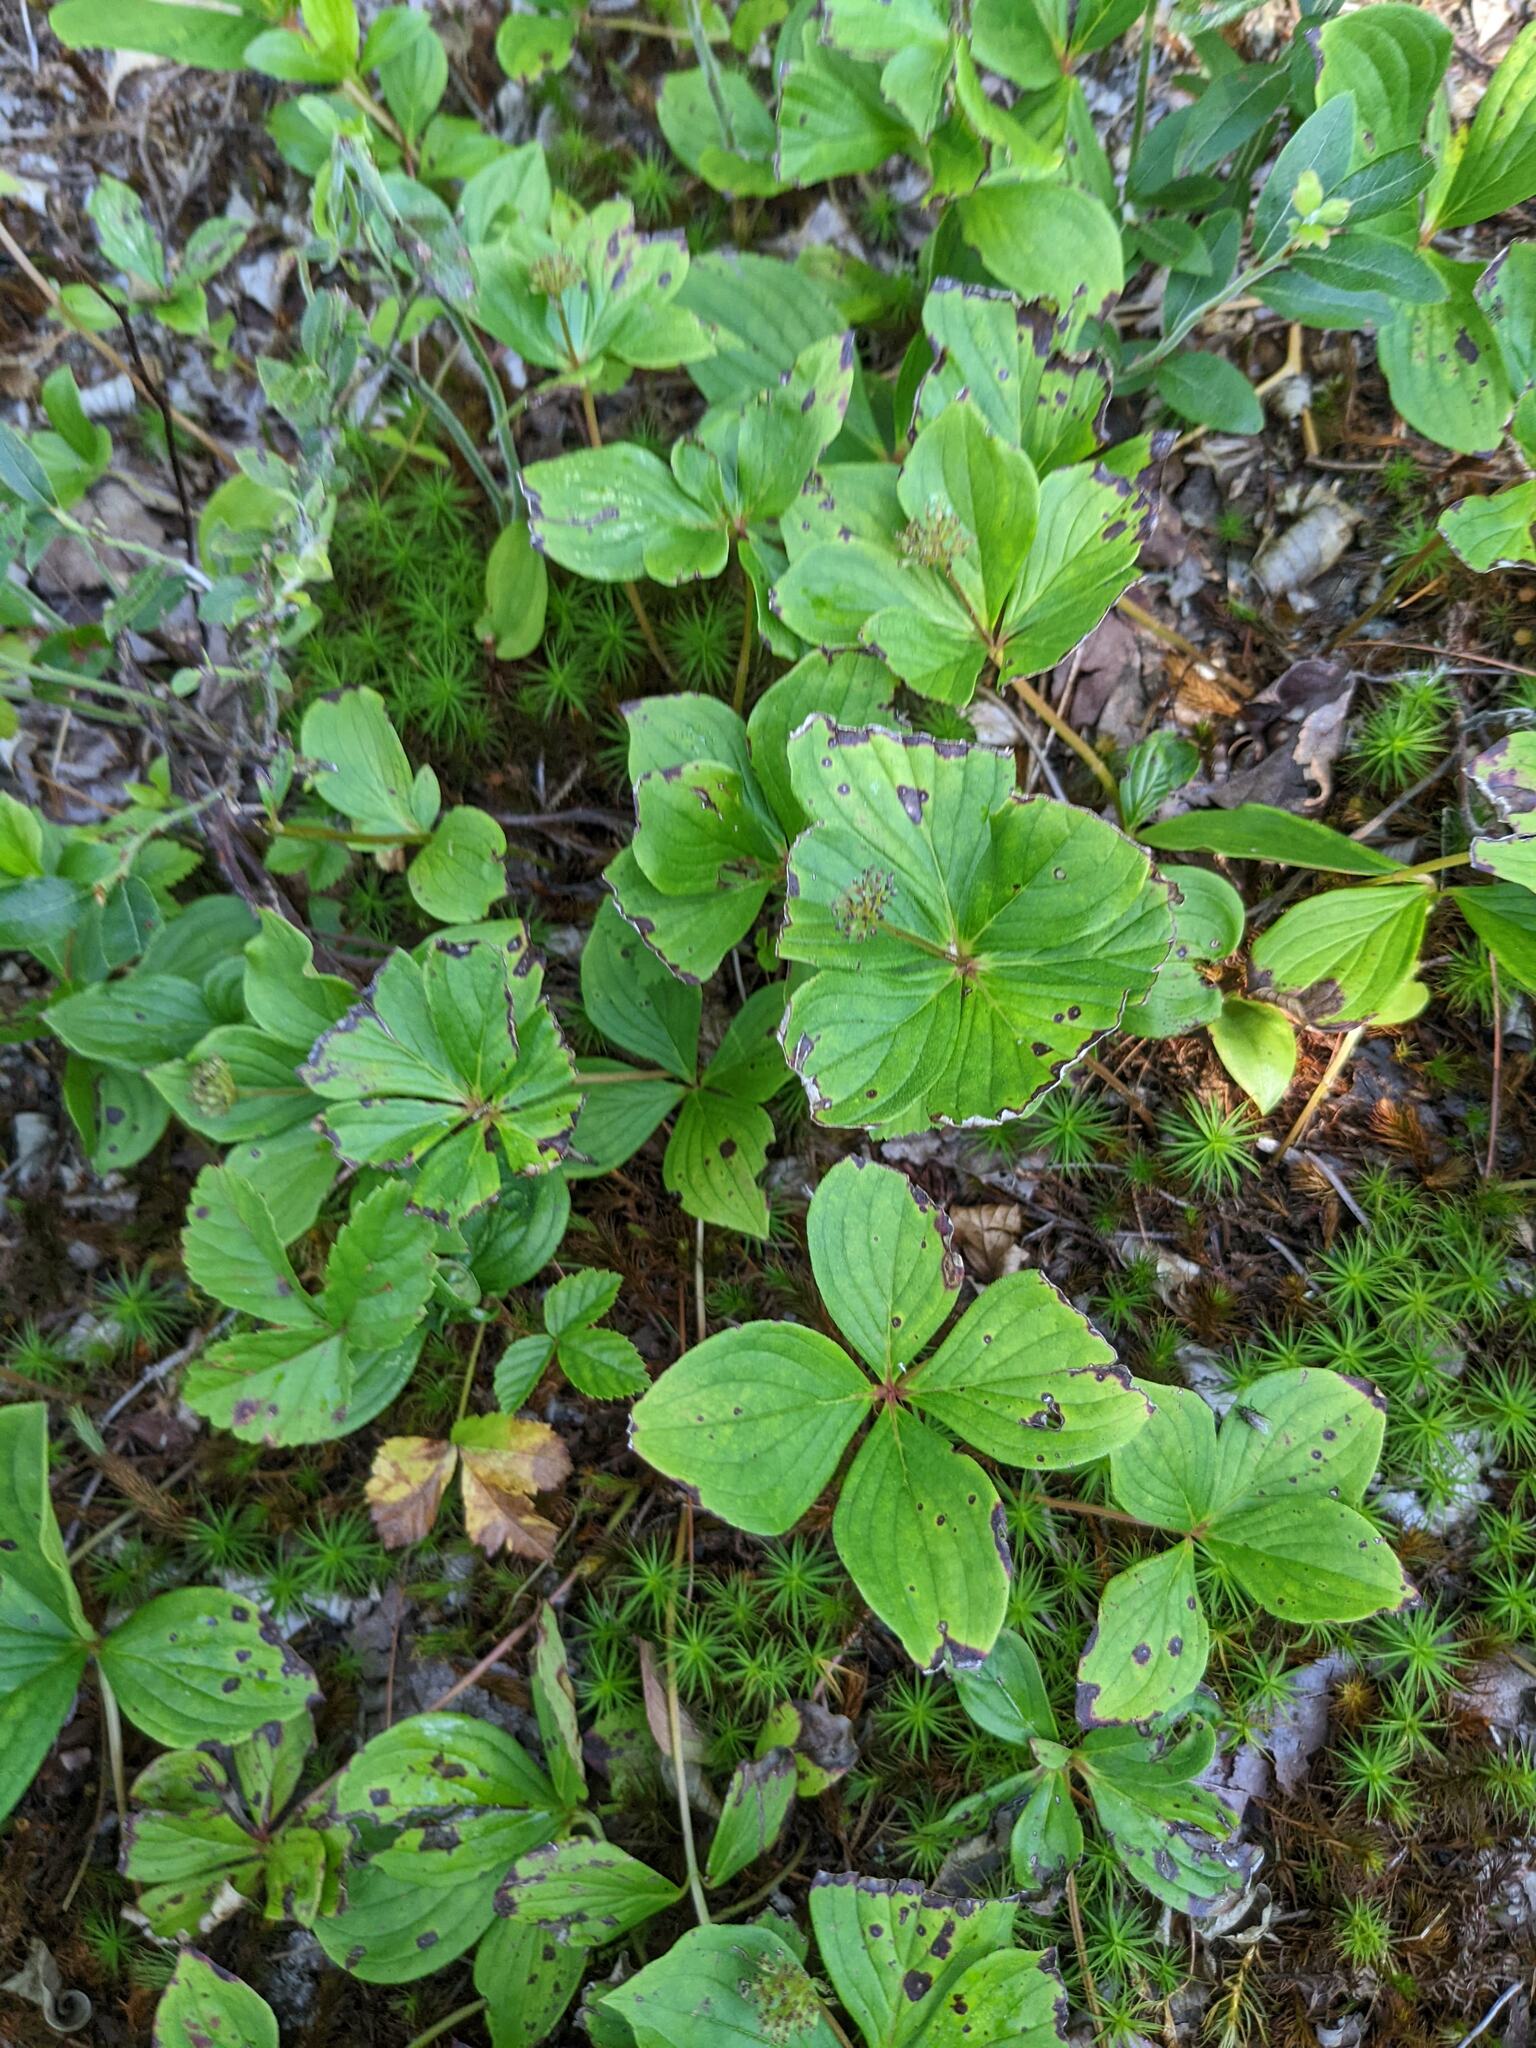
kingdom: Plantae
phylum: Tracheophyta
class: Magnoliopsida
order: Cornales
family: Cornaceae
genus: Cornus
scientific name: Cornus canadensis
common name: Creeping dogwood
